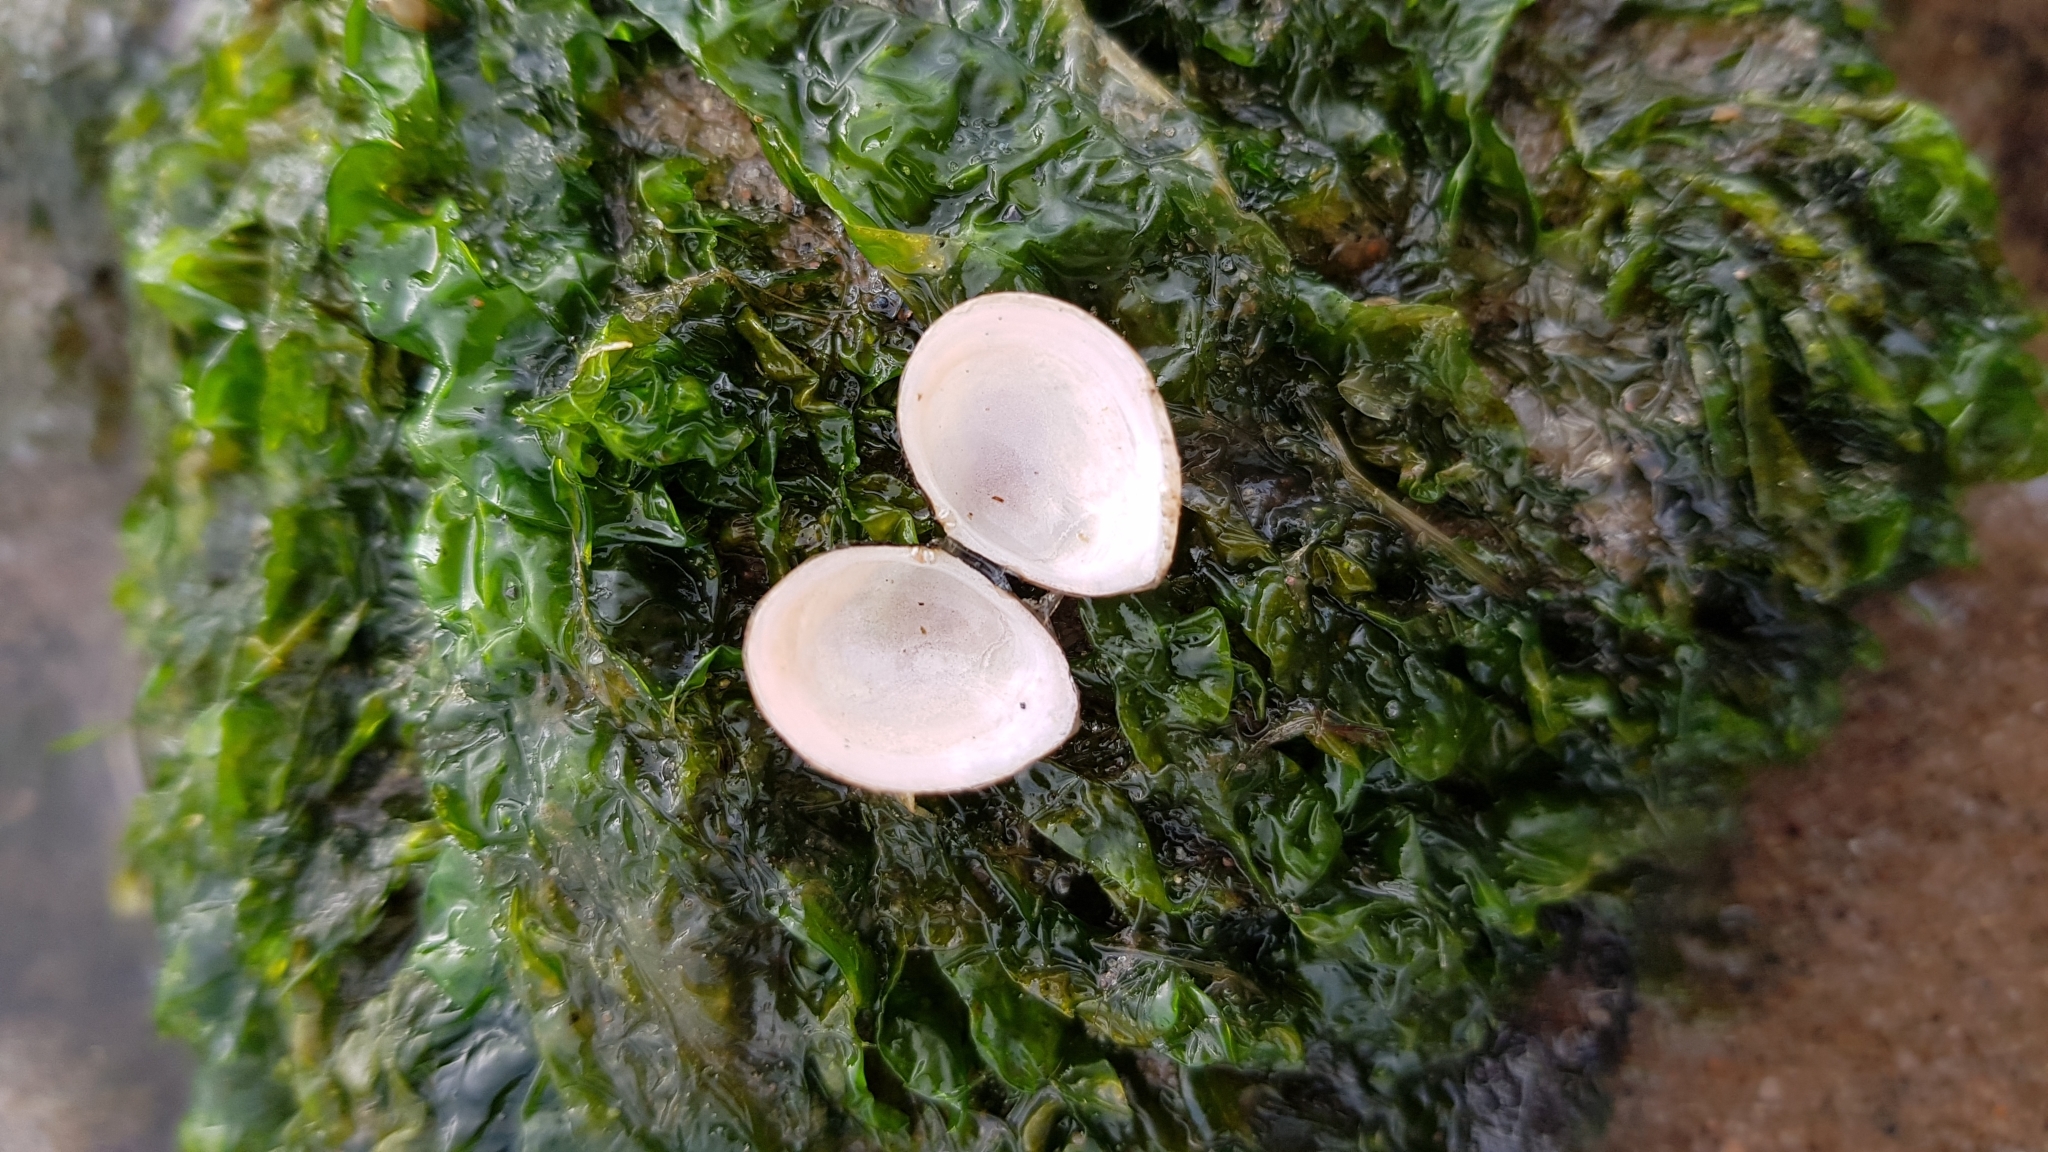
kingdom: Animalia
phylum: Mollusca
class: Bivalvia
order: Cardiida
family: Tellinidae
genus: Macoma
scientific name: Macoma balthica
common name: Baltic tellin
